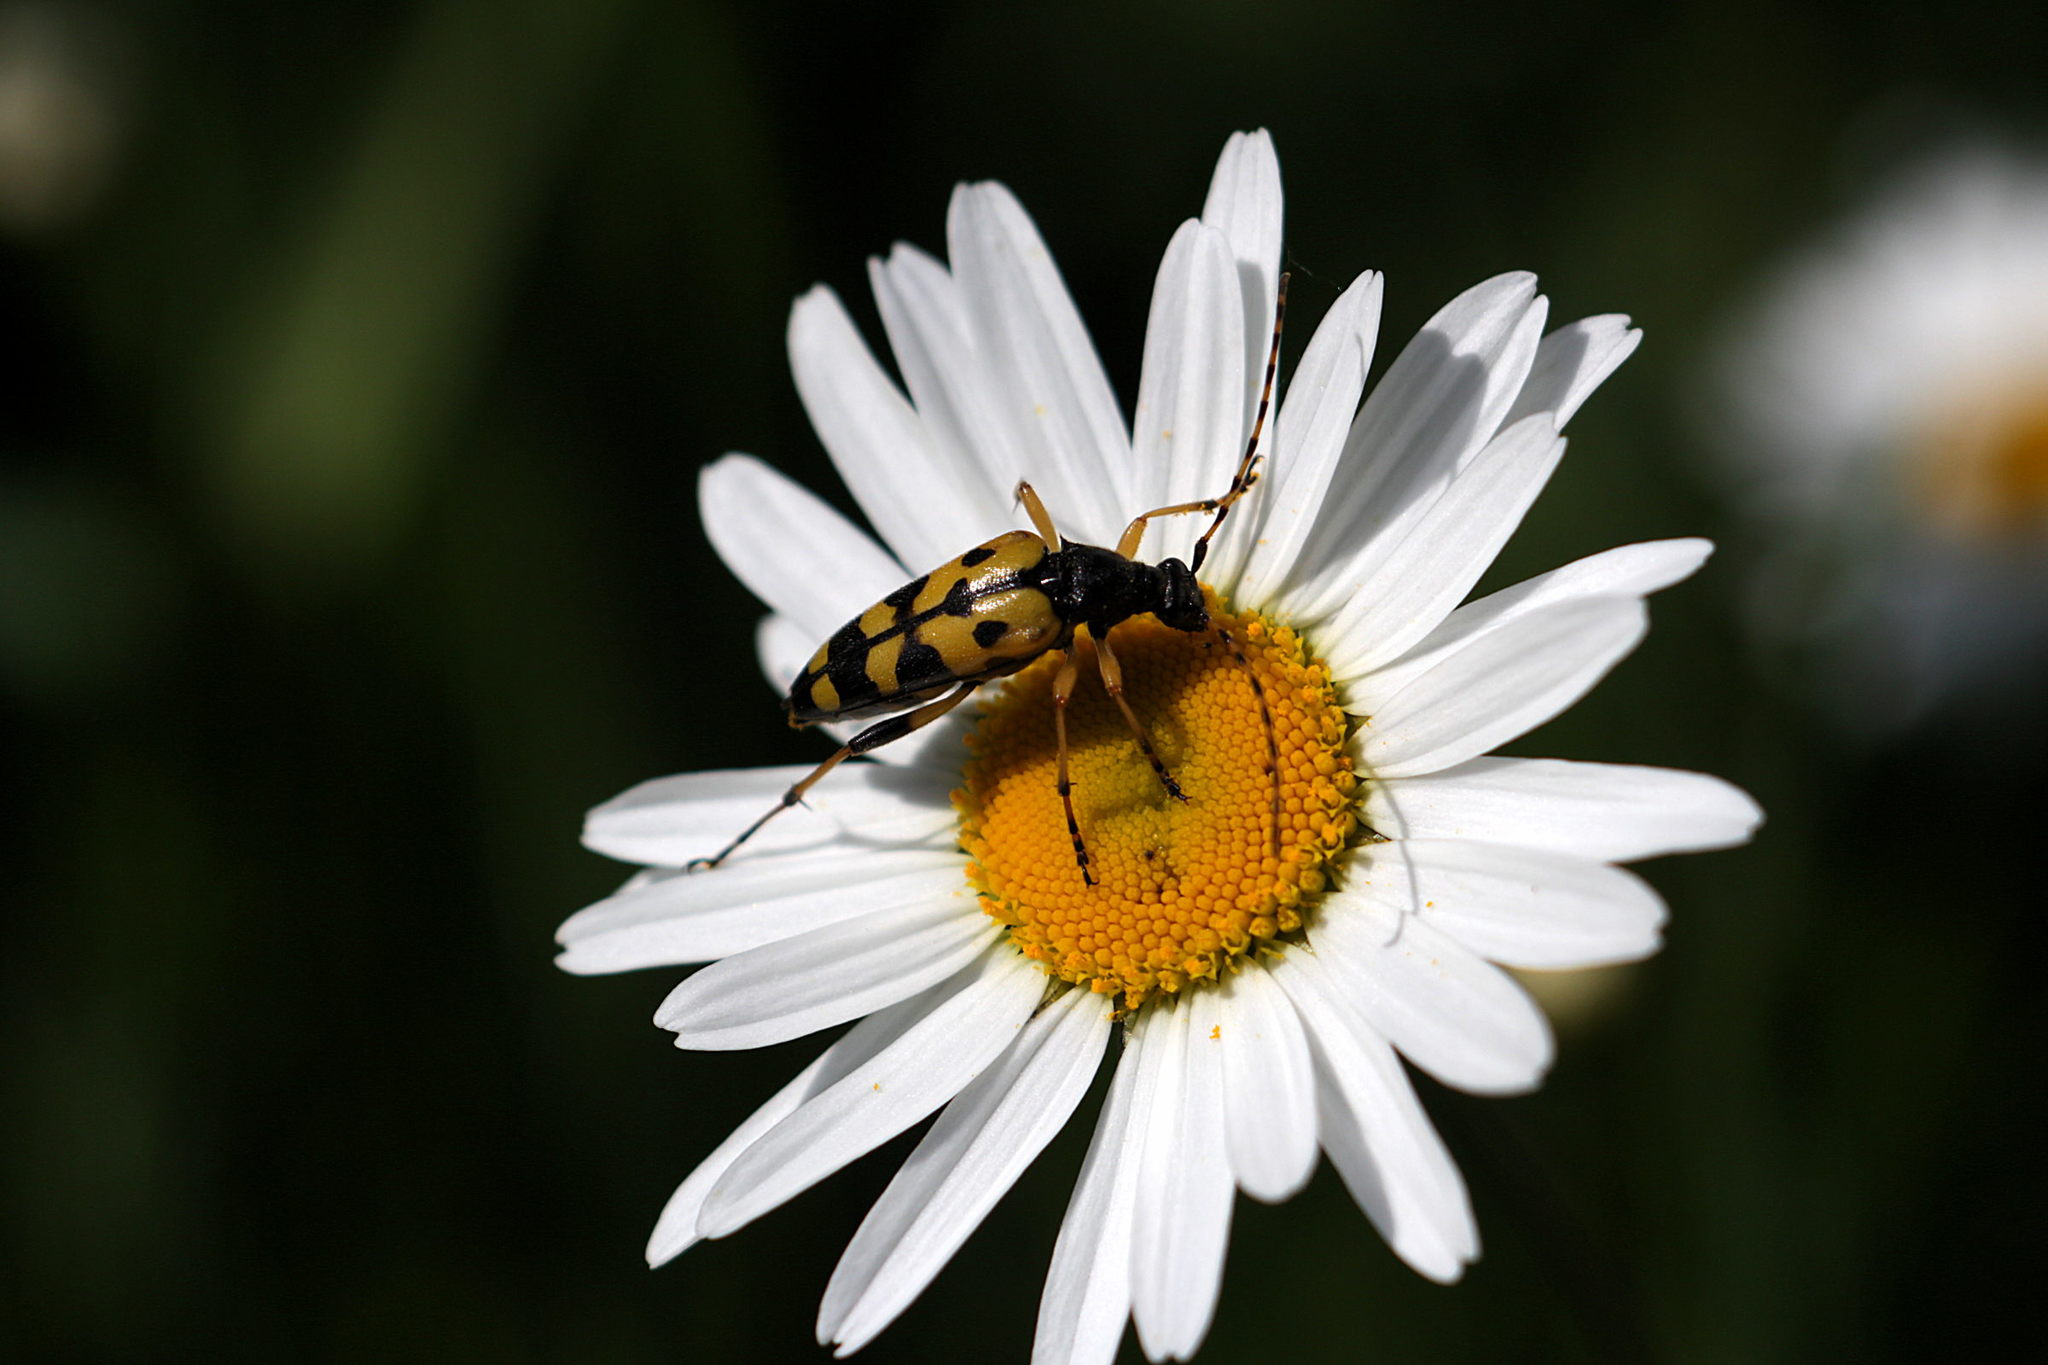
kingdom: Animalia
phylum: Arthropoda
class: Insecta
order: Coleoptera
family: Cerambycidae
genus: Rutpela
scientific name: Rutpela maculata
